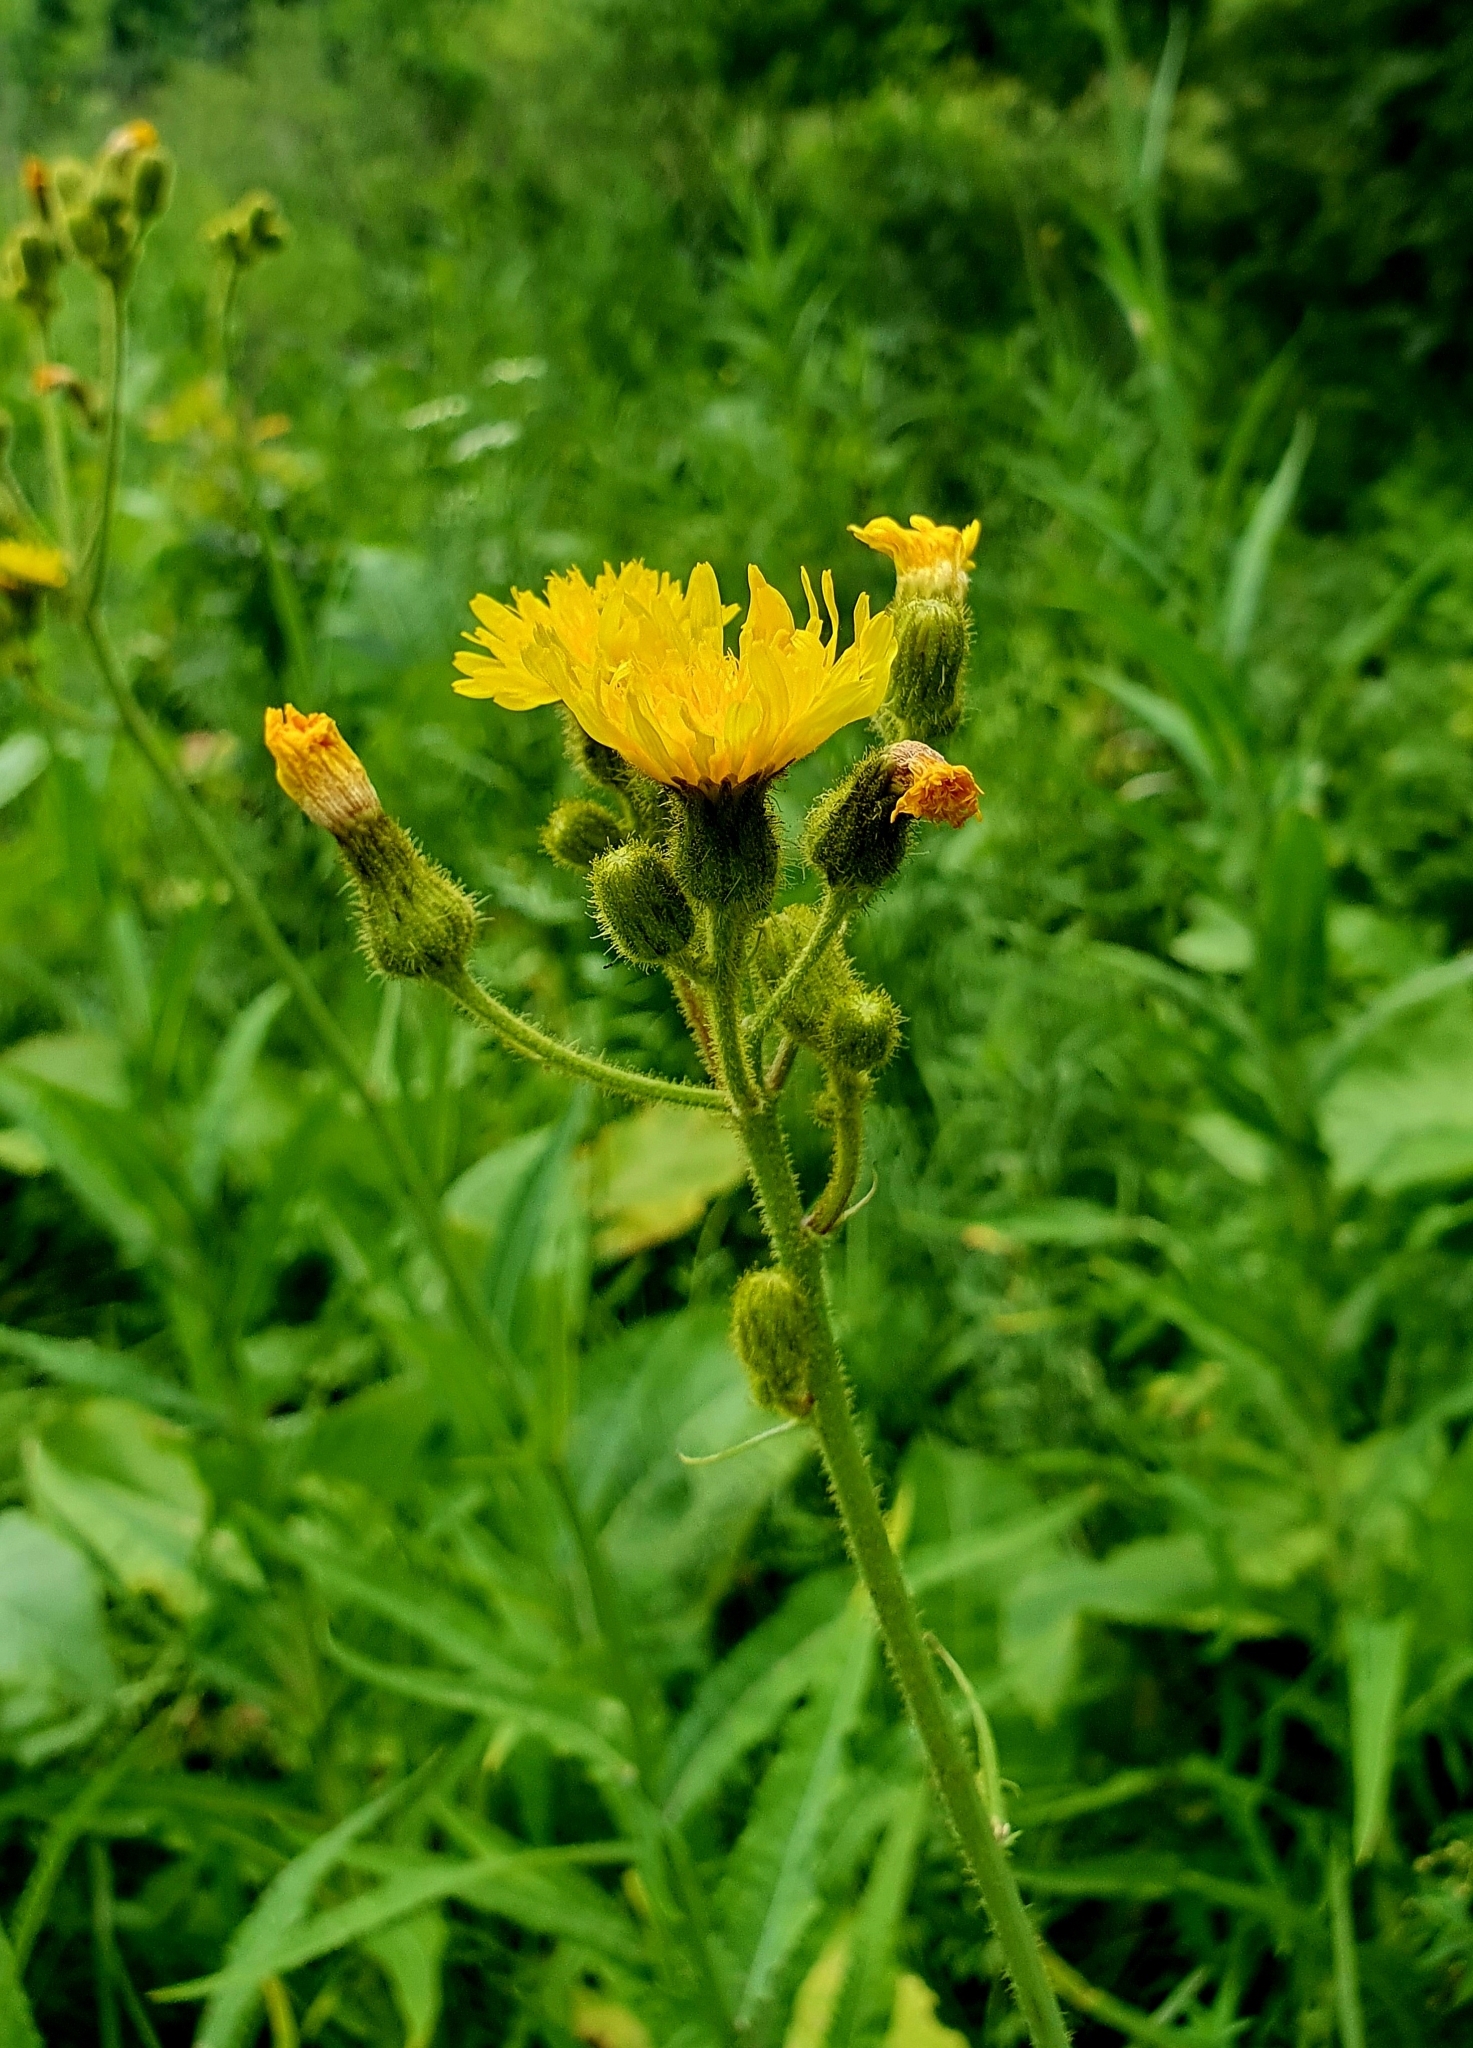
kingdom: Plantae
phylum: Tracheophyta
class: Magnoliopsida
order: Asterales
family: Asteraceae
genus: Sonchus
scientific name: Sonchus palustris
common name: Marsh sow-thistle
